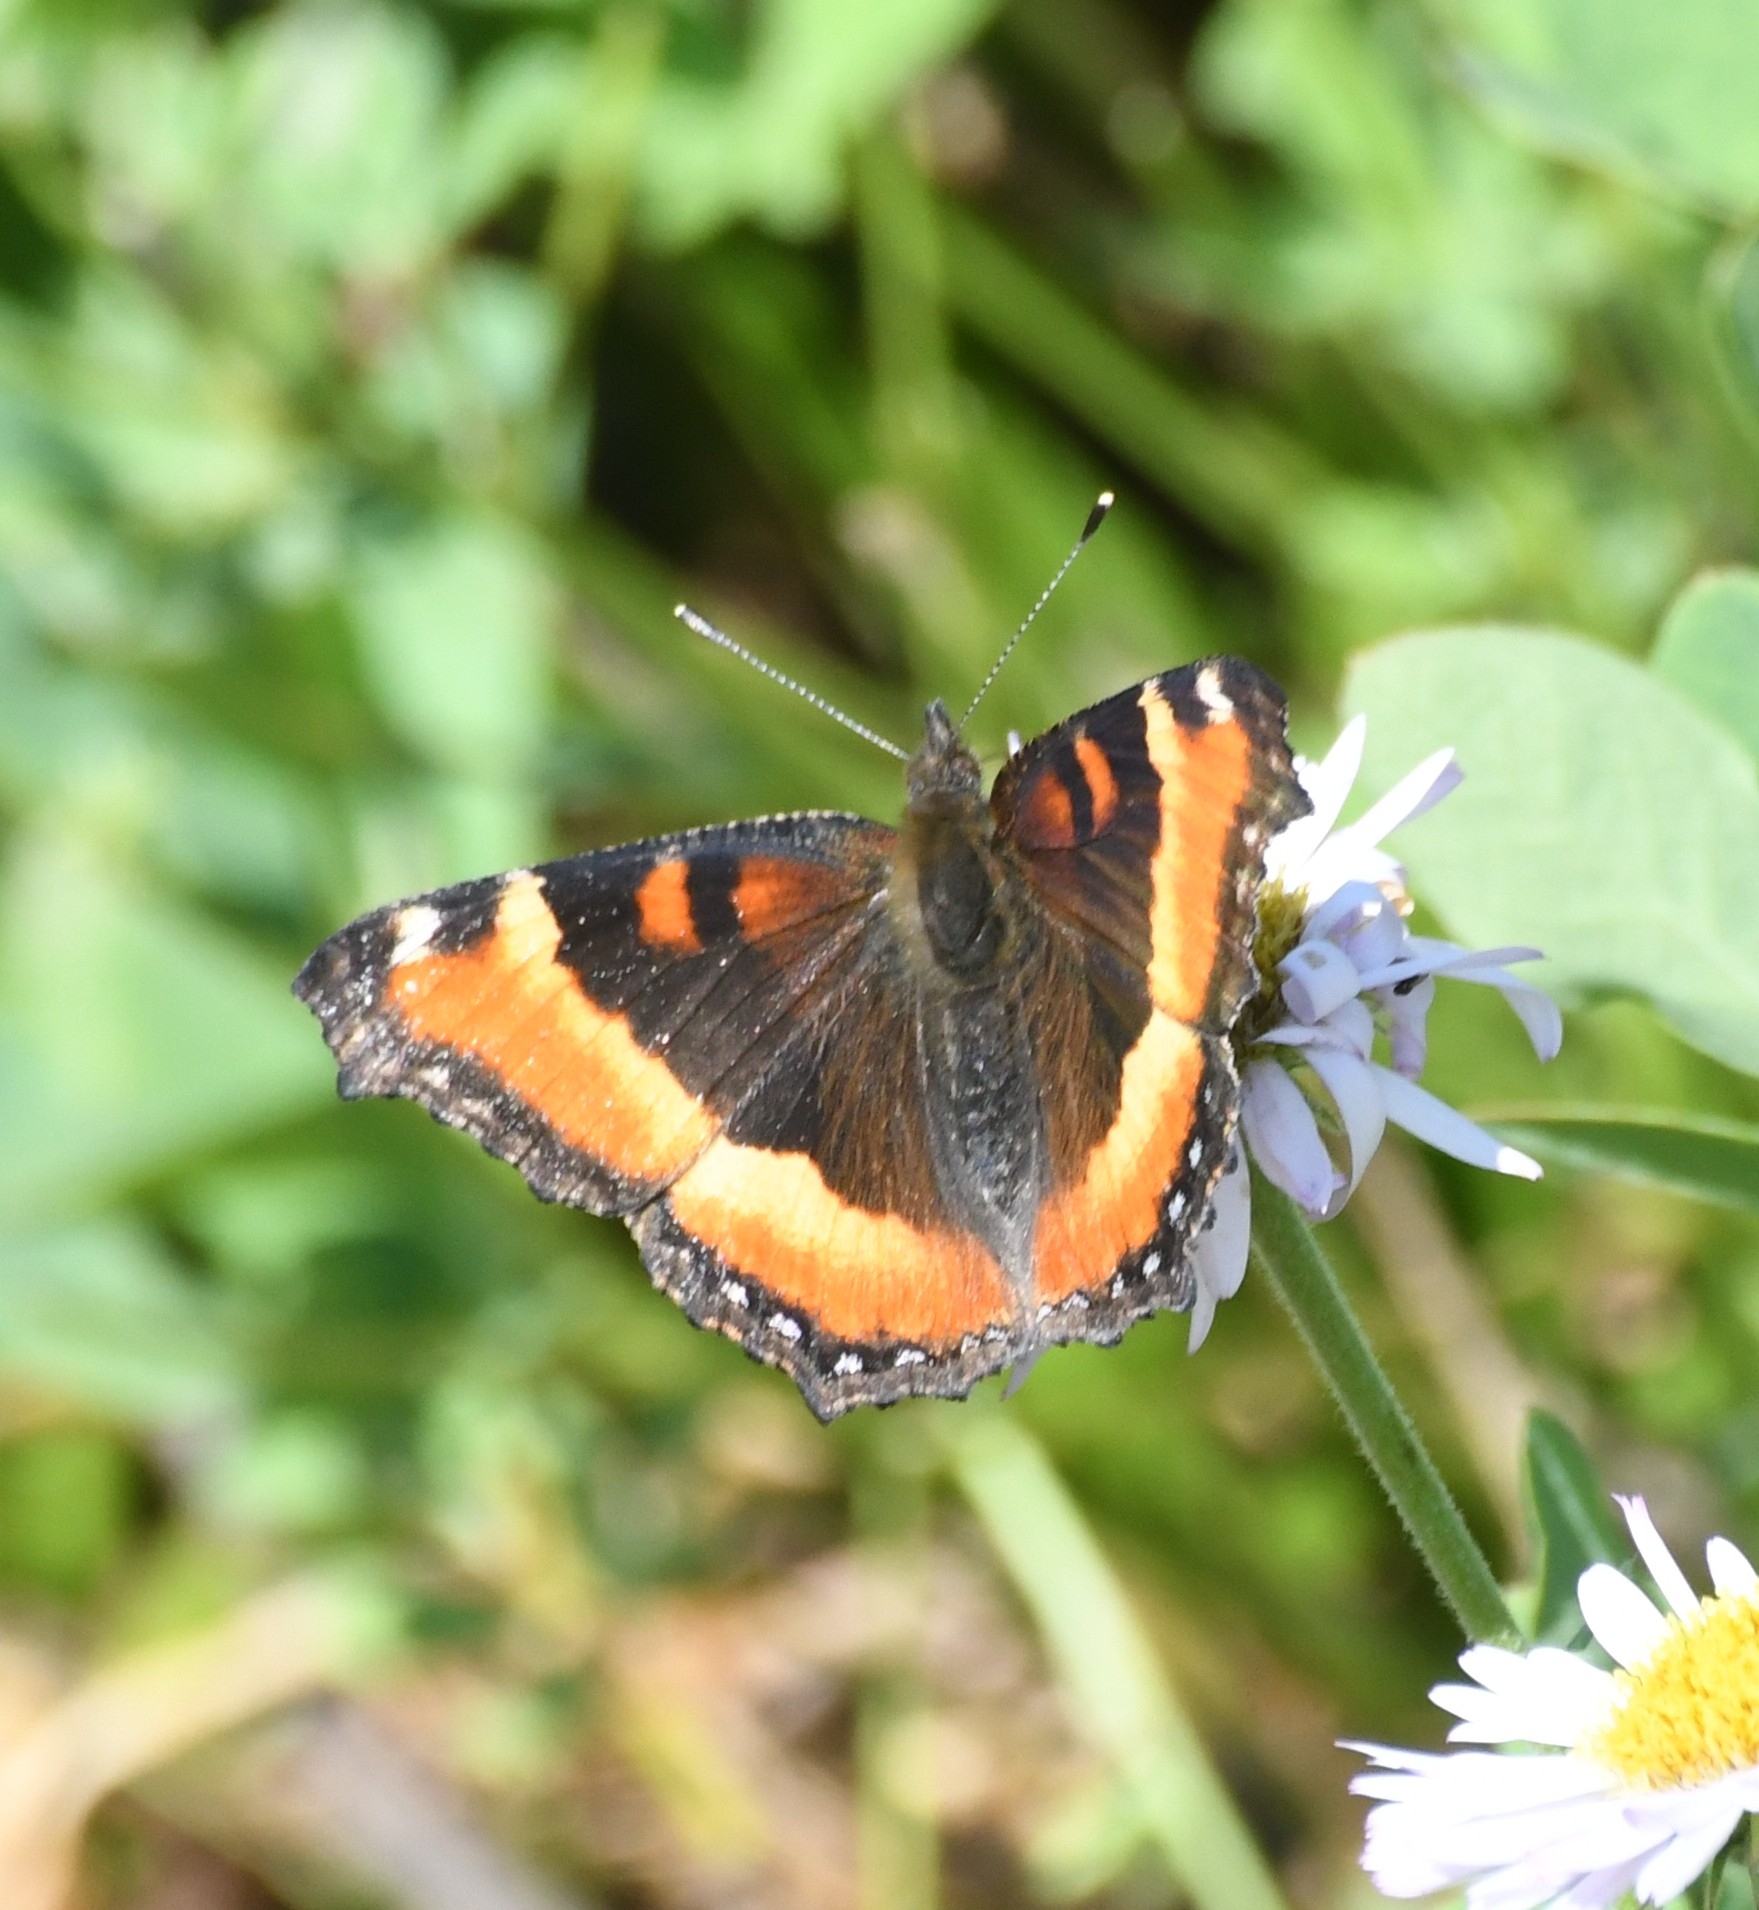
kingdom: Animalia
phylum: Arthropoda
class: Insecta
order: Lepidoptera
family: Nymphalidae
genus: Aglais
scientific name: Aglais milberti
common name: Milbert's tortoiseshell
